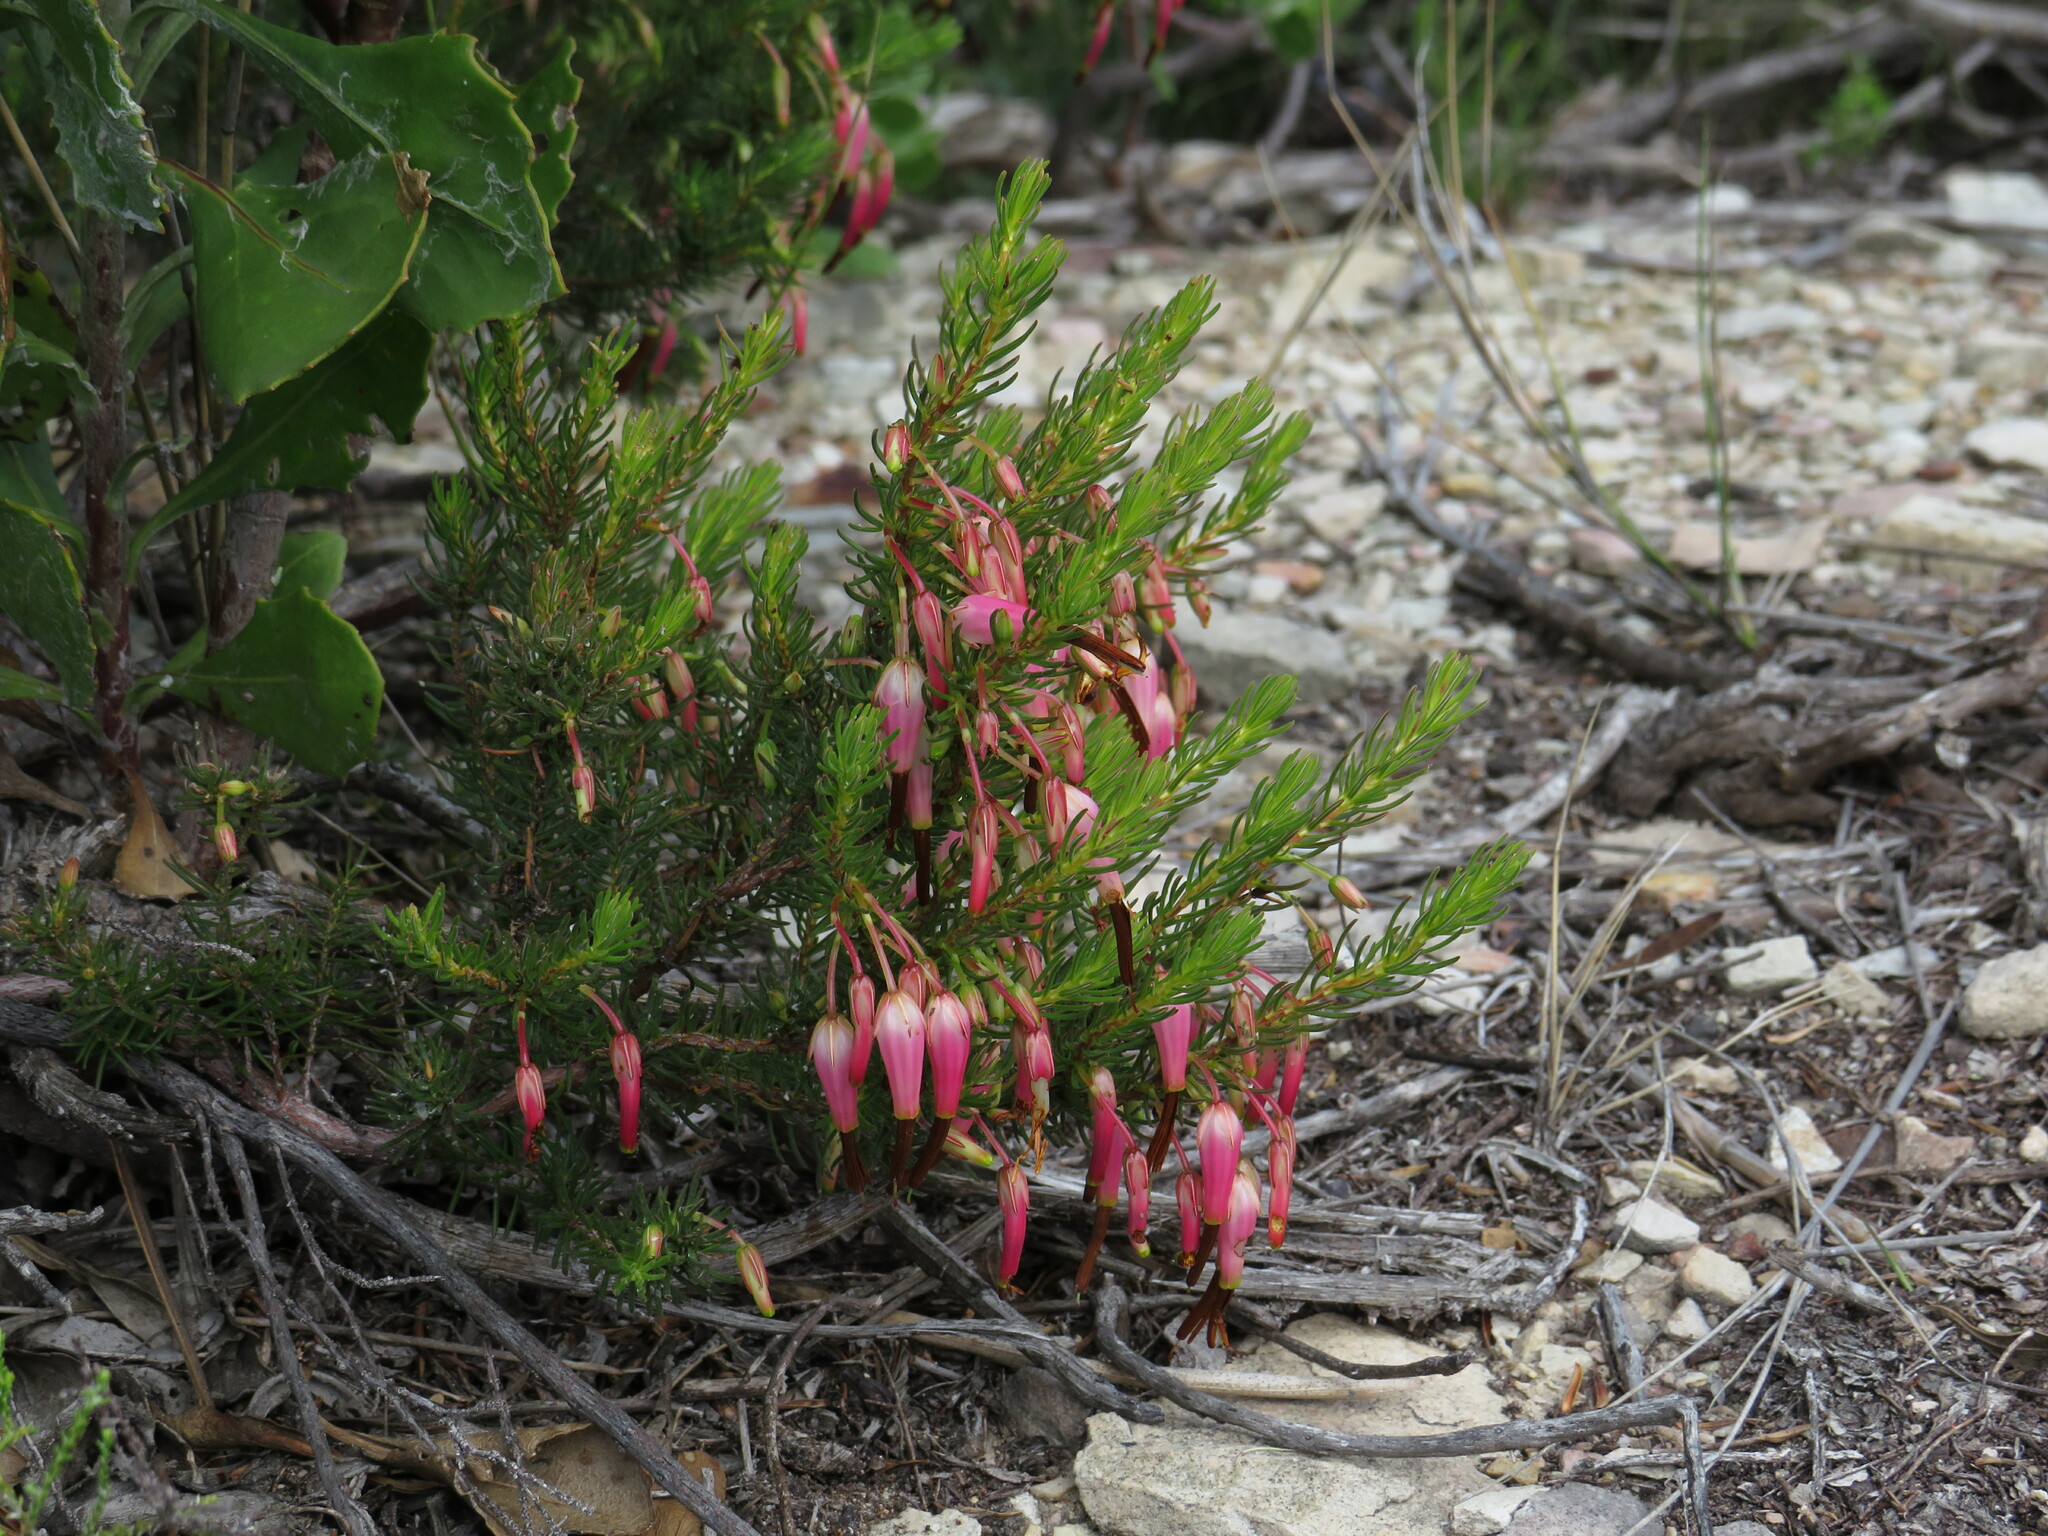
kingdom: Plantae
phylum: Tracheophyta
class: Magnoliopsida
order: Ericales
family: Ericaceae
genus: Erica
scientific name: Erica plukenetii
